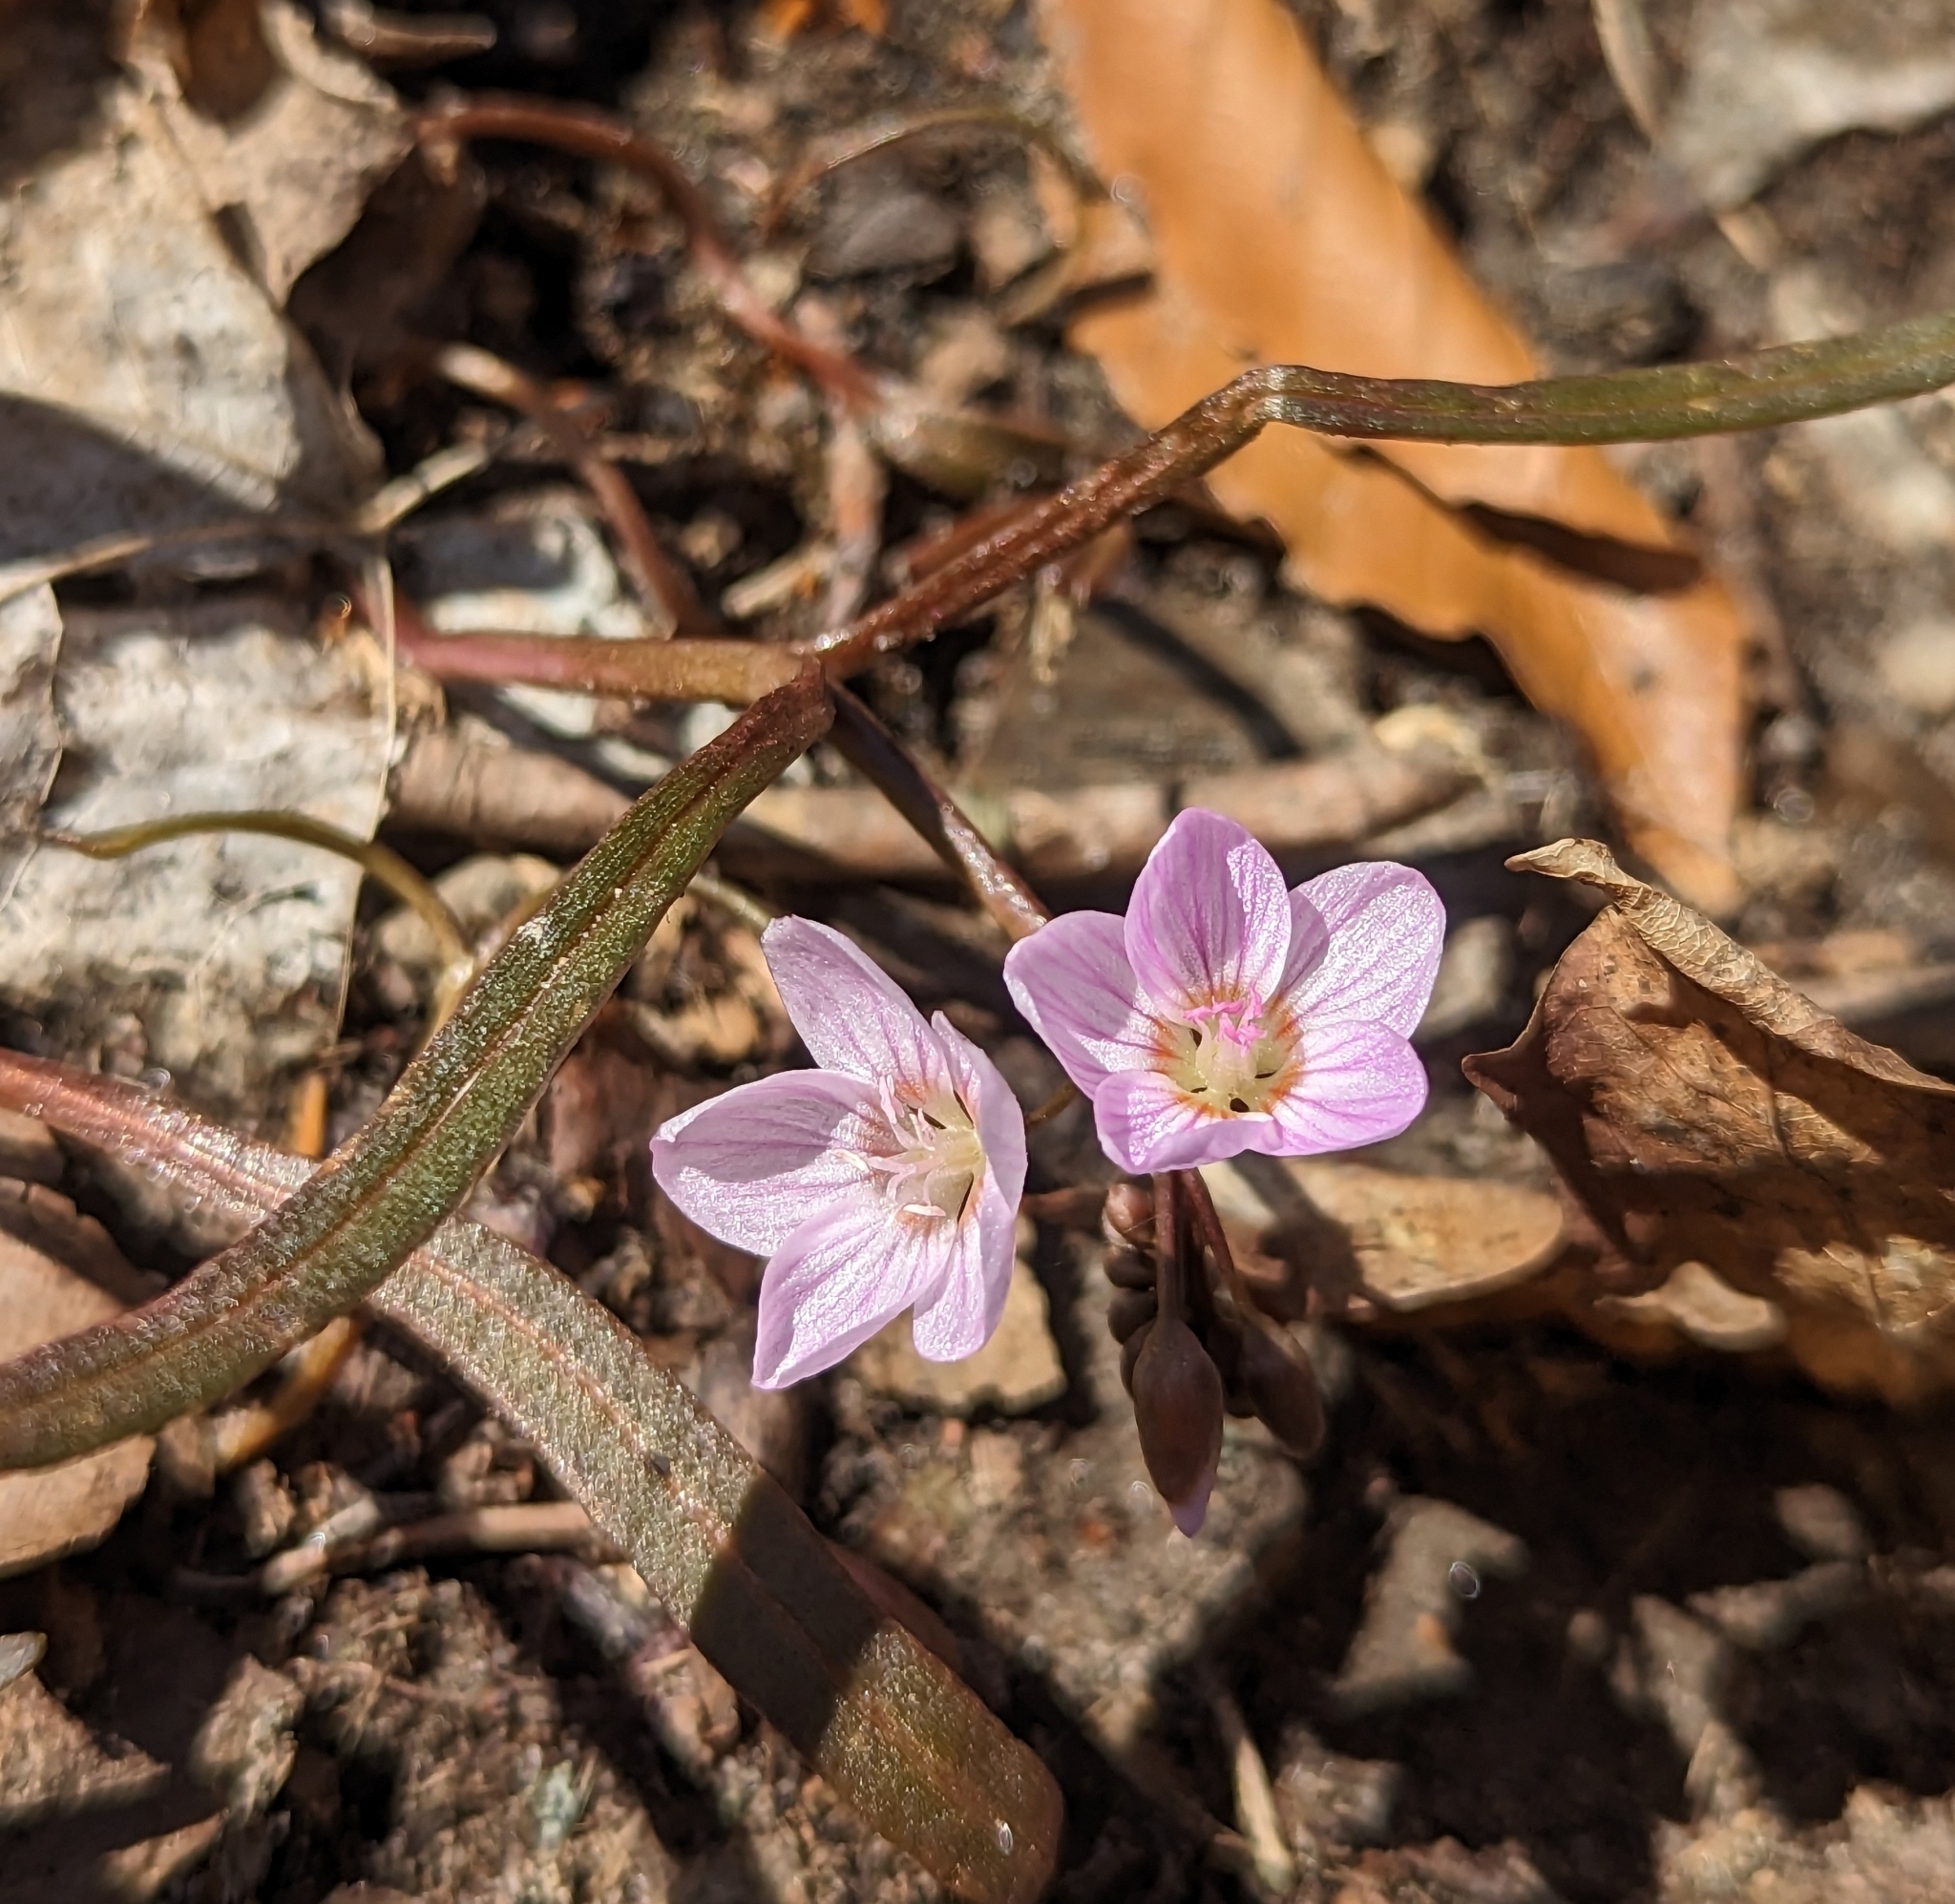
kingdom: Plantae
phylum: Tracheophyta
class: Magnoliopsida
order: Caryophyllales
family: Montiaceae
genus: Claytonia
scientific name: Claytonia virginica
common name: Virginia springbeauty
